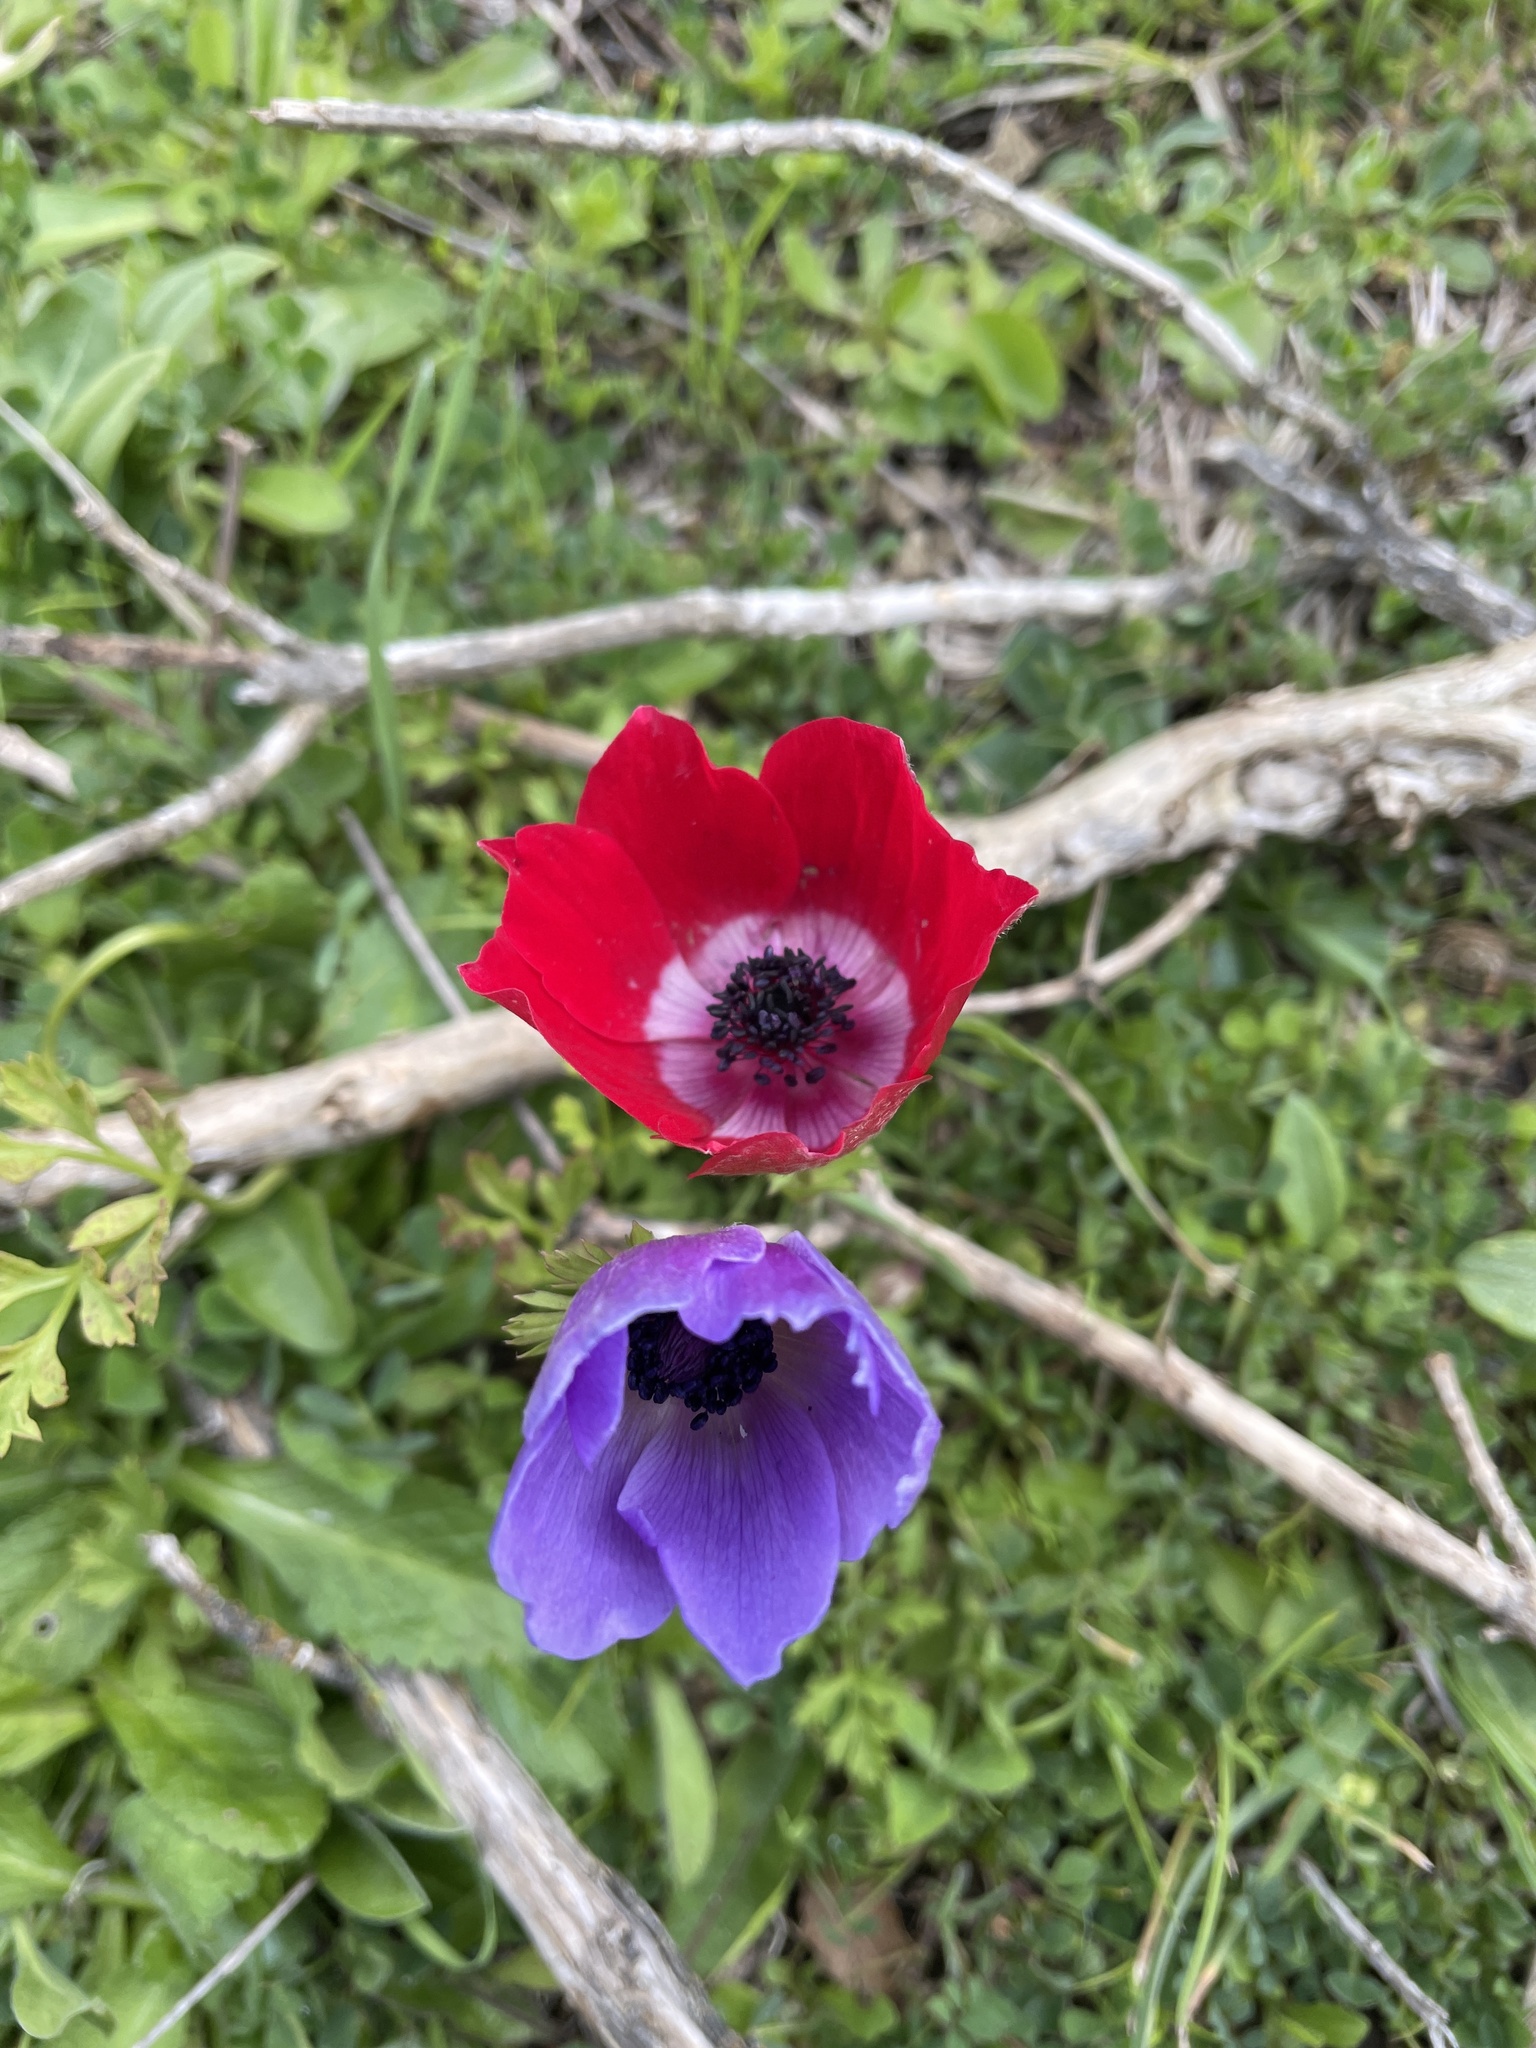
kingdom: Plantae
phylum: Tracheophyta
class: Magnoliopsida
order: Ranunculales
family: Ranunculaceae
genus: Anemone
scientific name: Anemone coronaria
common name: Poppy anemone
